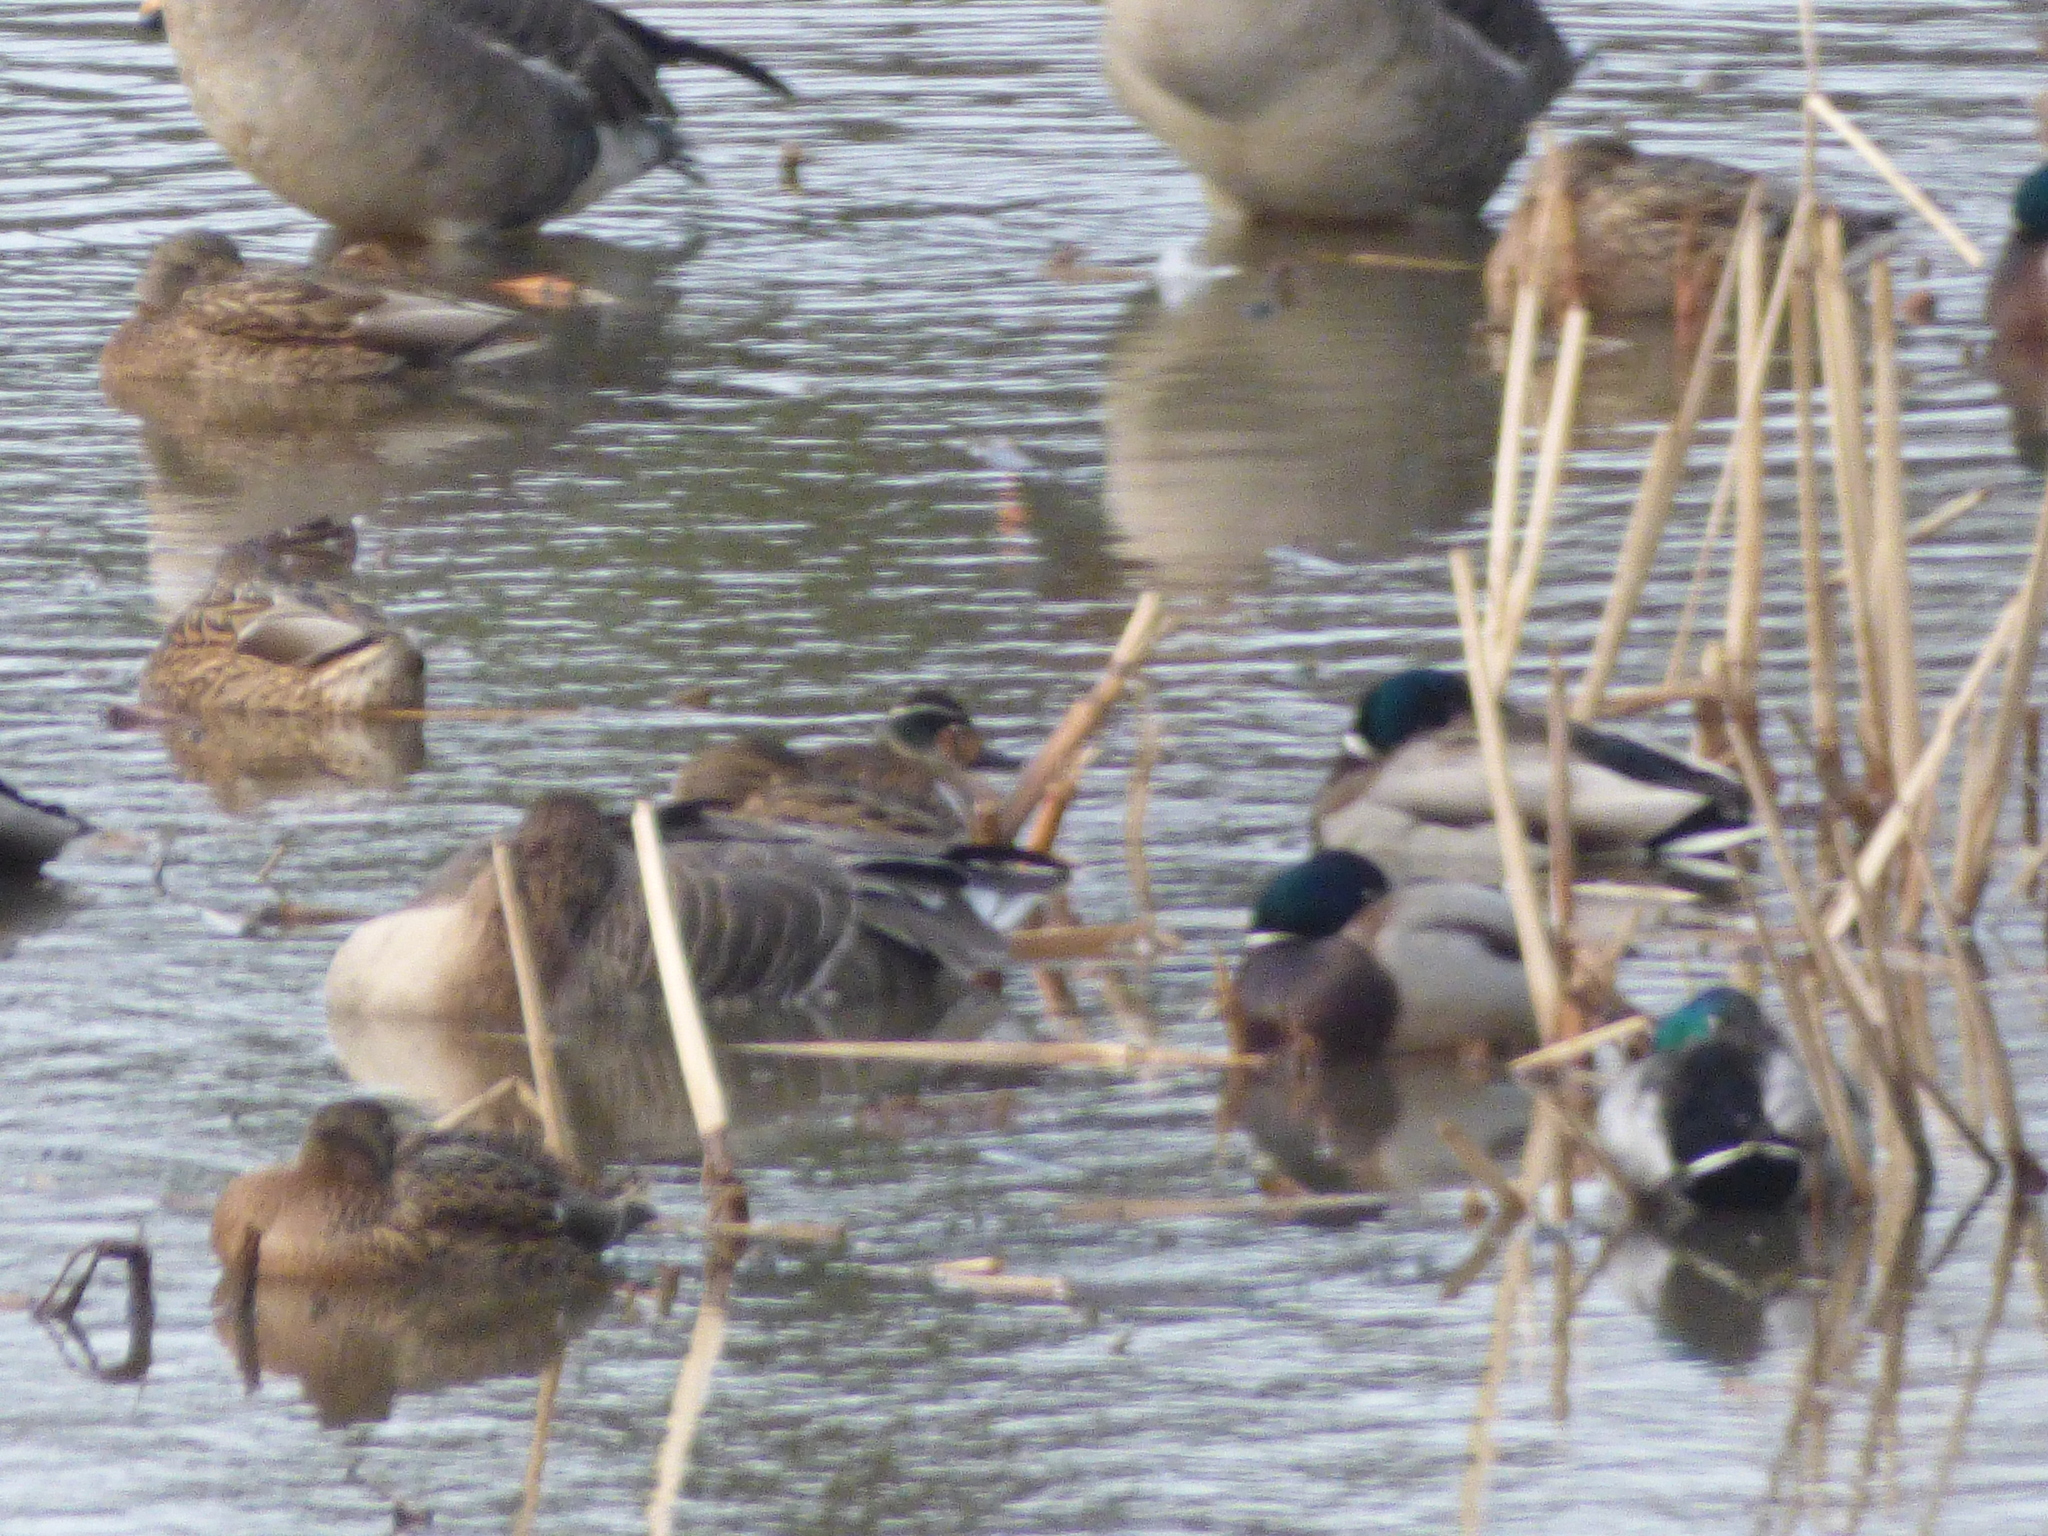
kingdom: Animalia
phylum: Chordata
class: Aves
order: Anseriformes
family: Anatidae
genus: Anas
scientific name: Anas platyrhynchos
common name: Mallard
